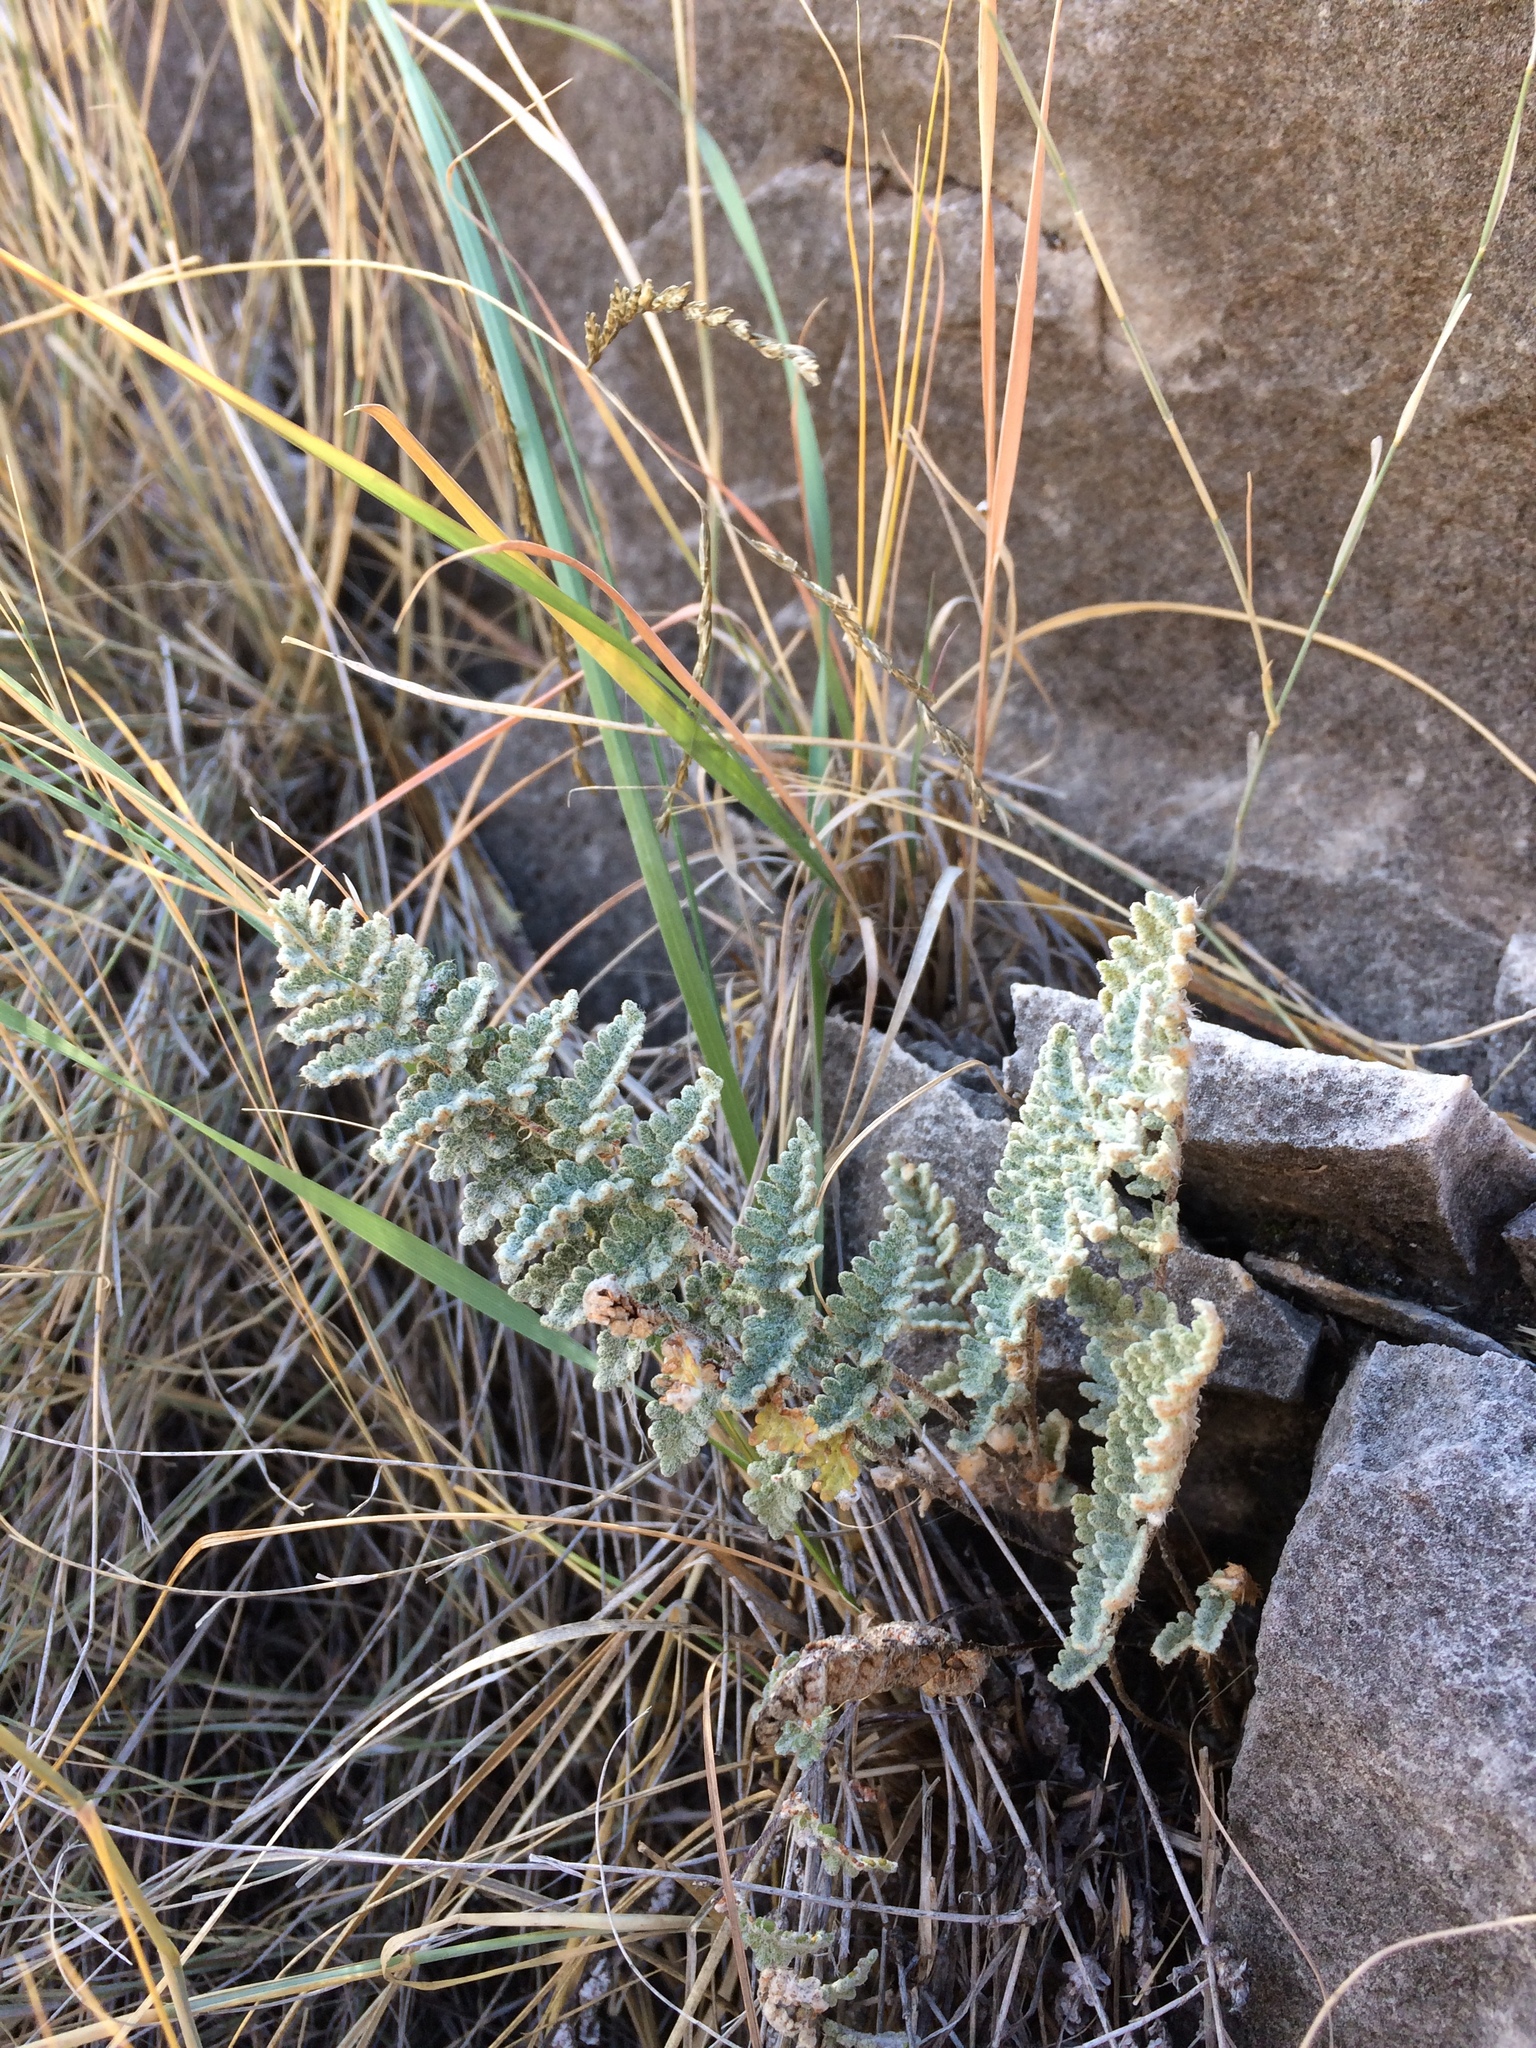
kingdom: Plantae
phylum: Tracheophyta
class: Polypodiopsida
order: Polypodiales
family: Pteridaceae
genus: Myriopteris
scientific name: Myriopteris rufa
